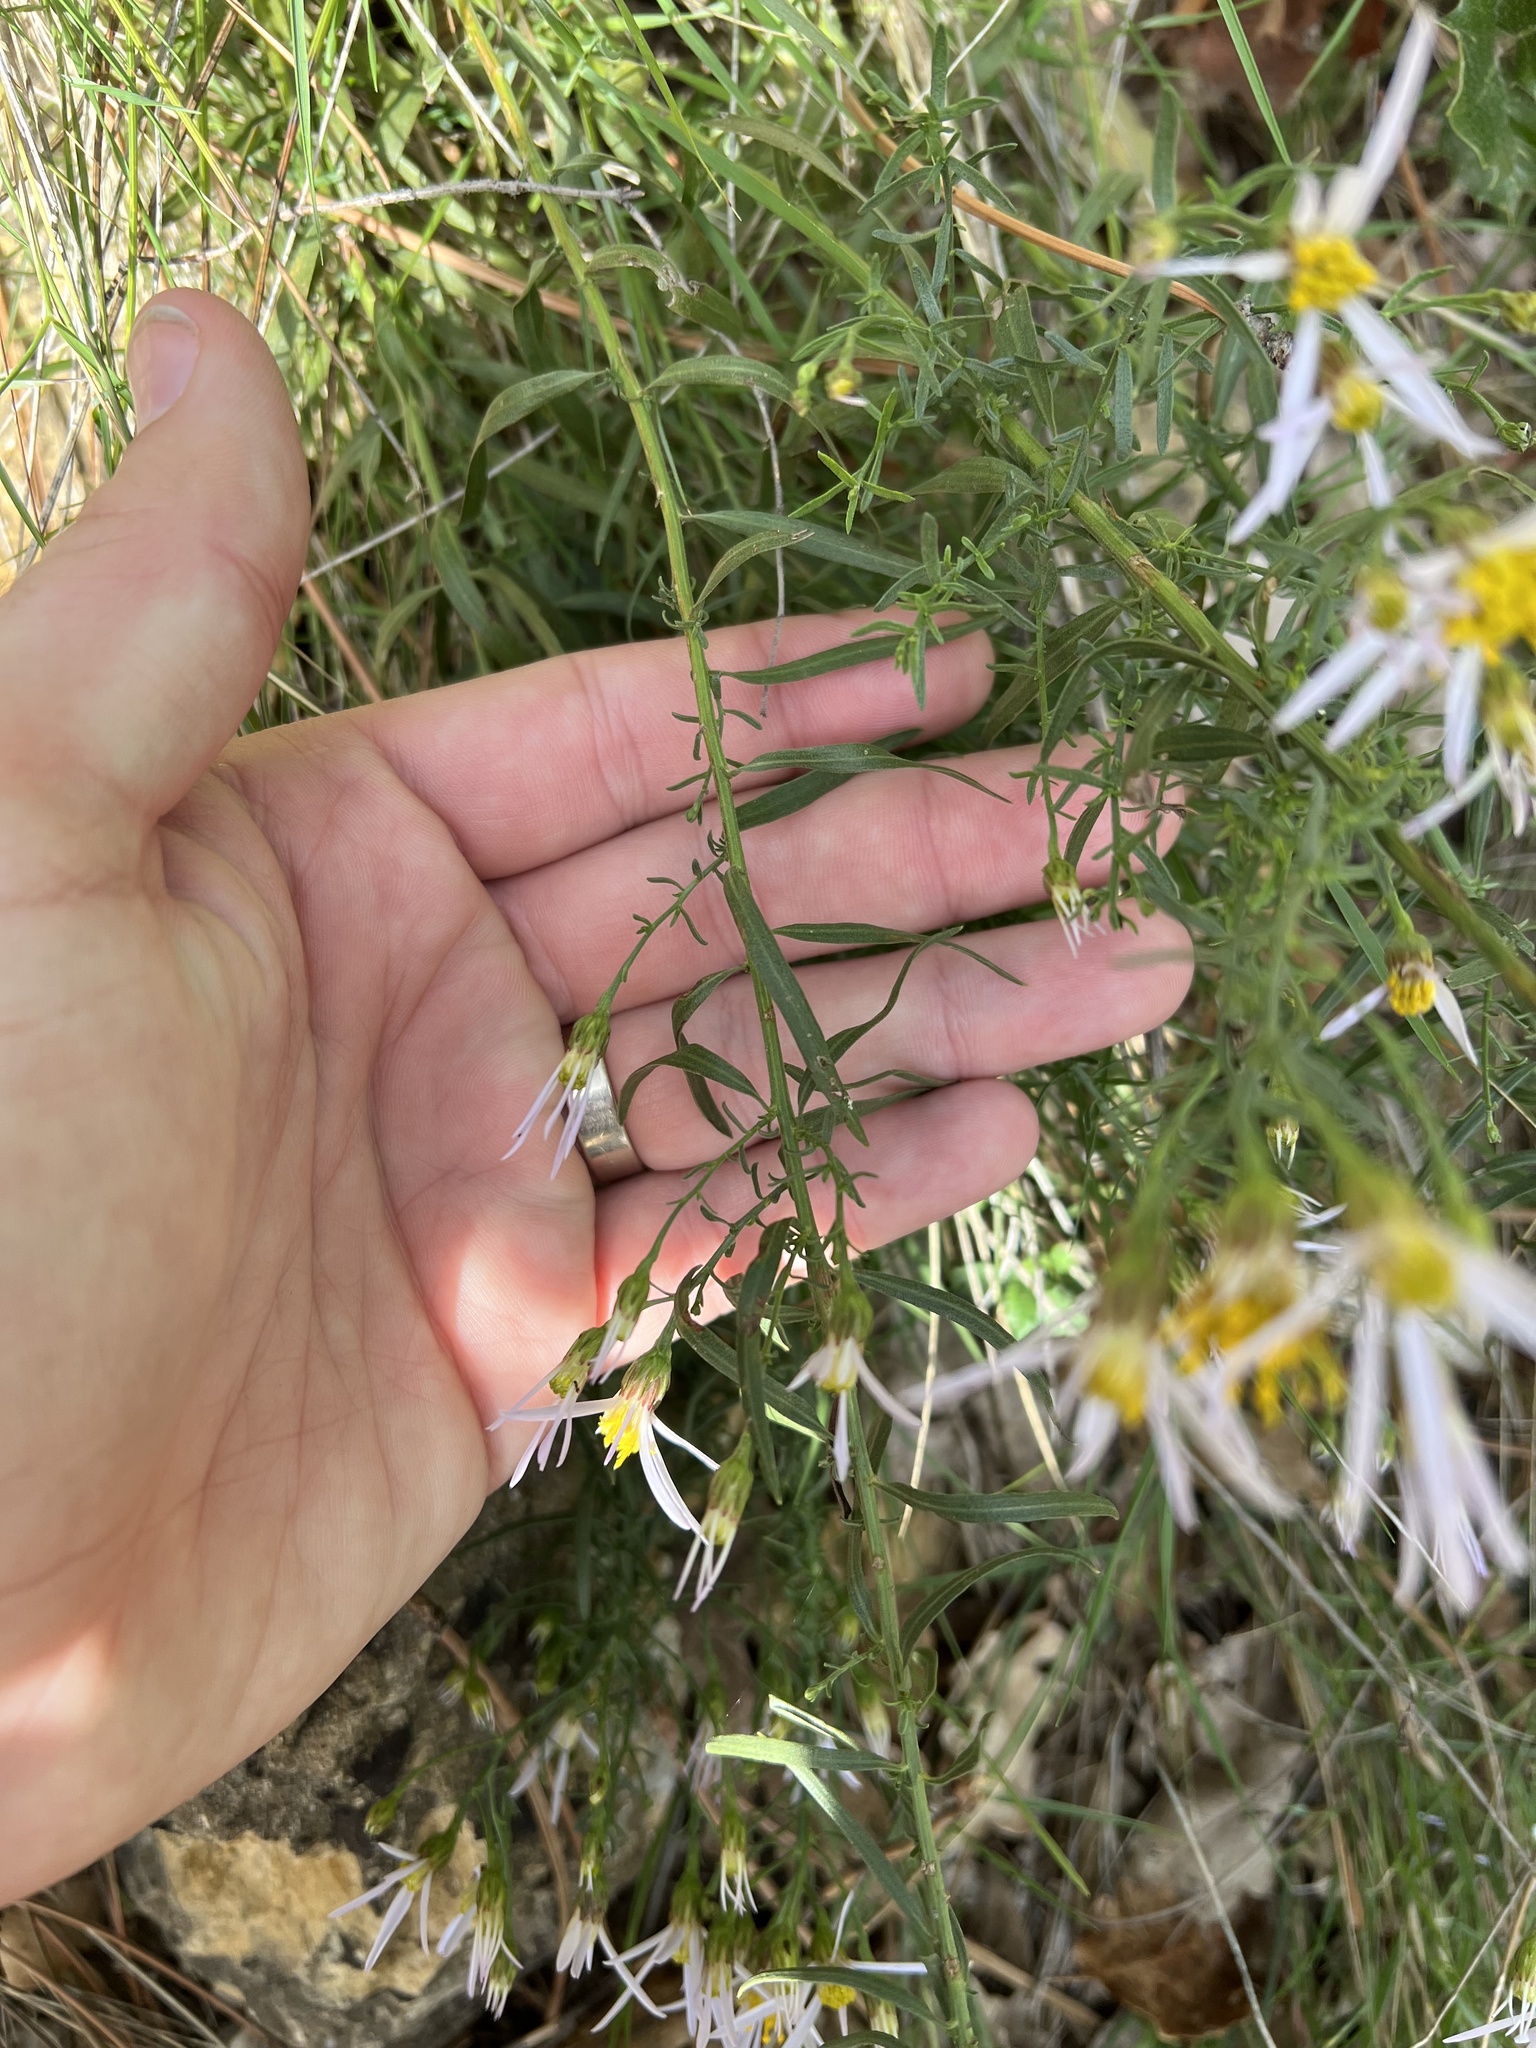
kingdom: Plantae
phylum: Tracheophyta
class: Magnoliopsida
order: Asterales
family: Asteraceae
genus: Galatella
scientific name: Galatella sedifolia
